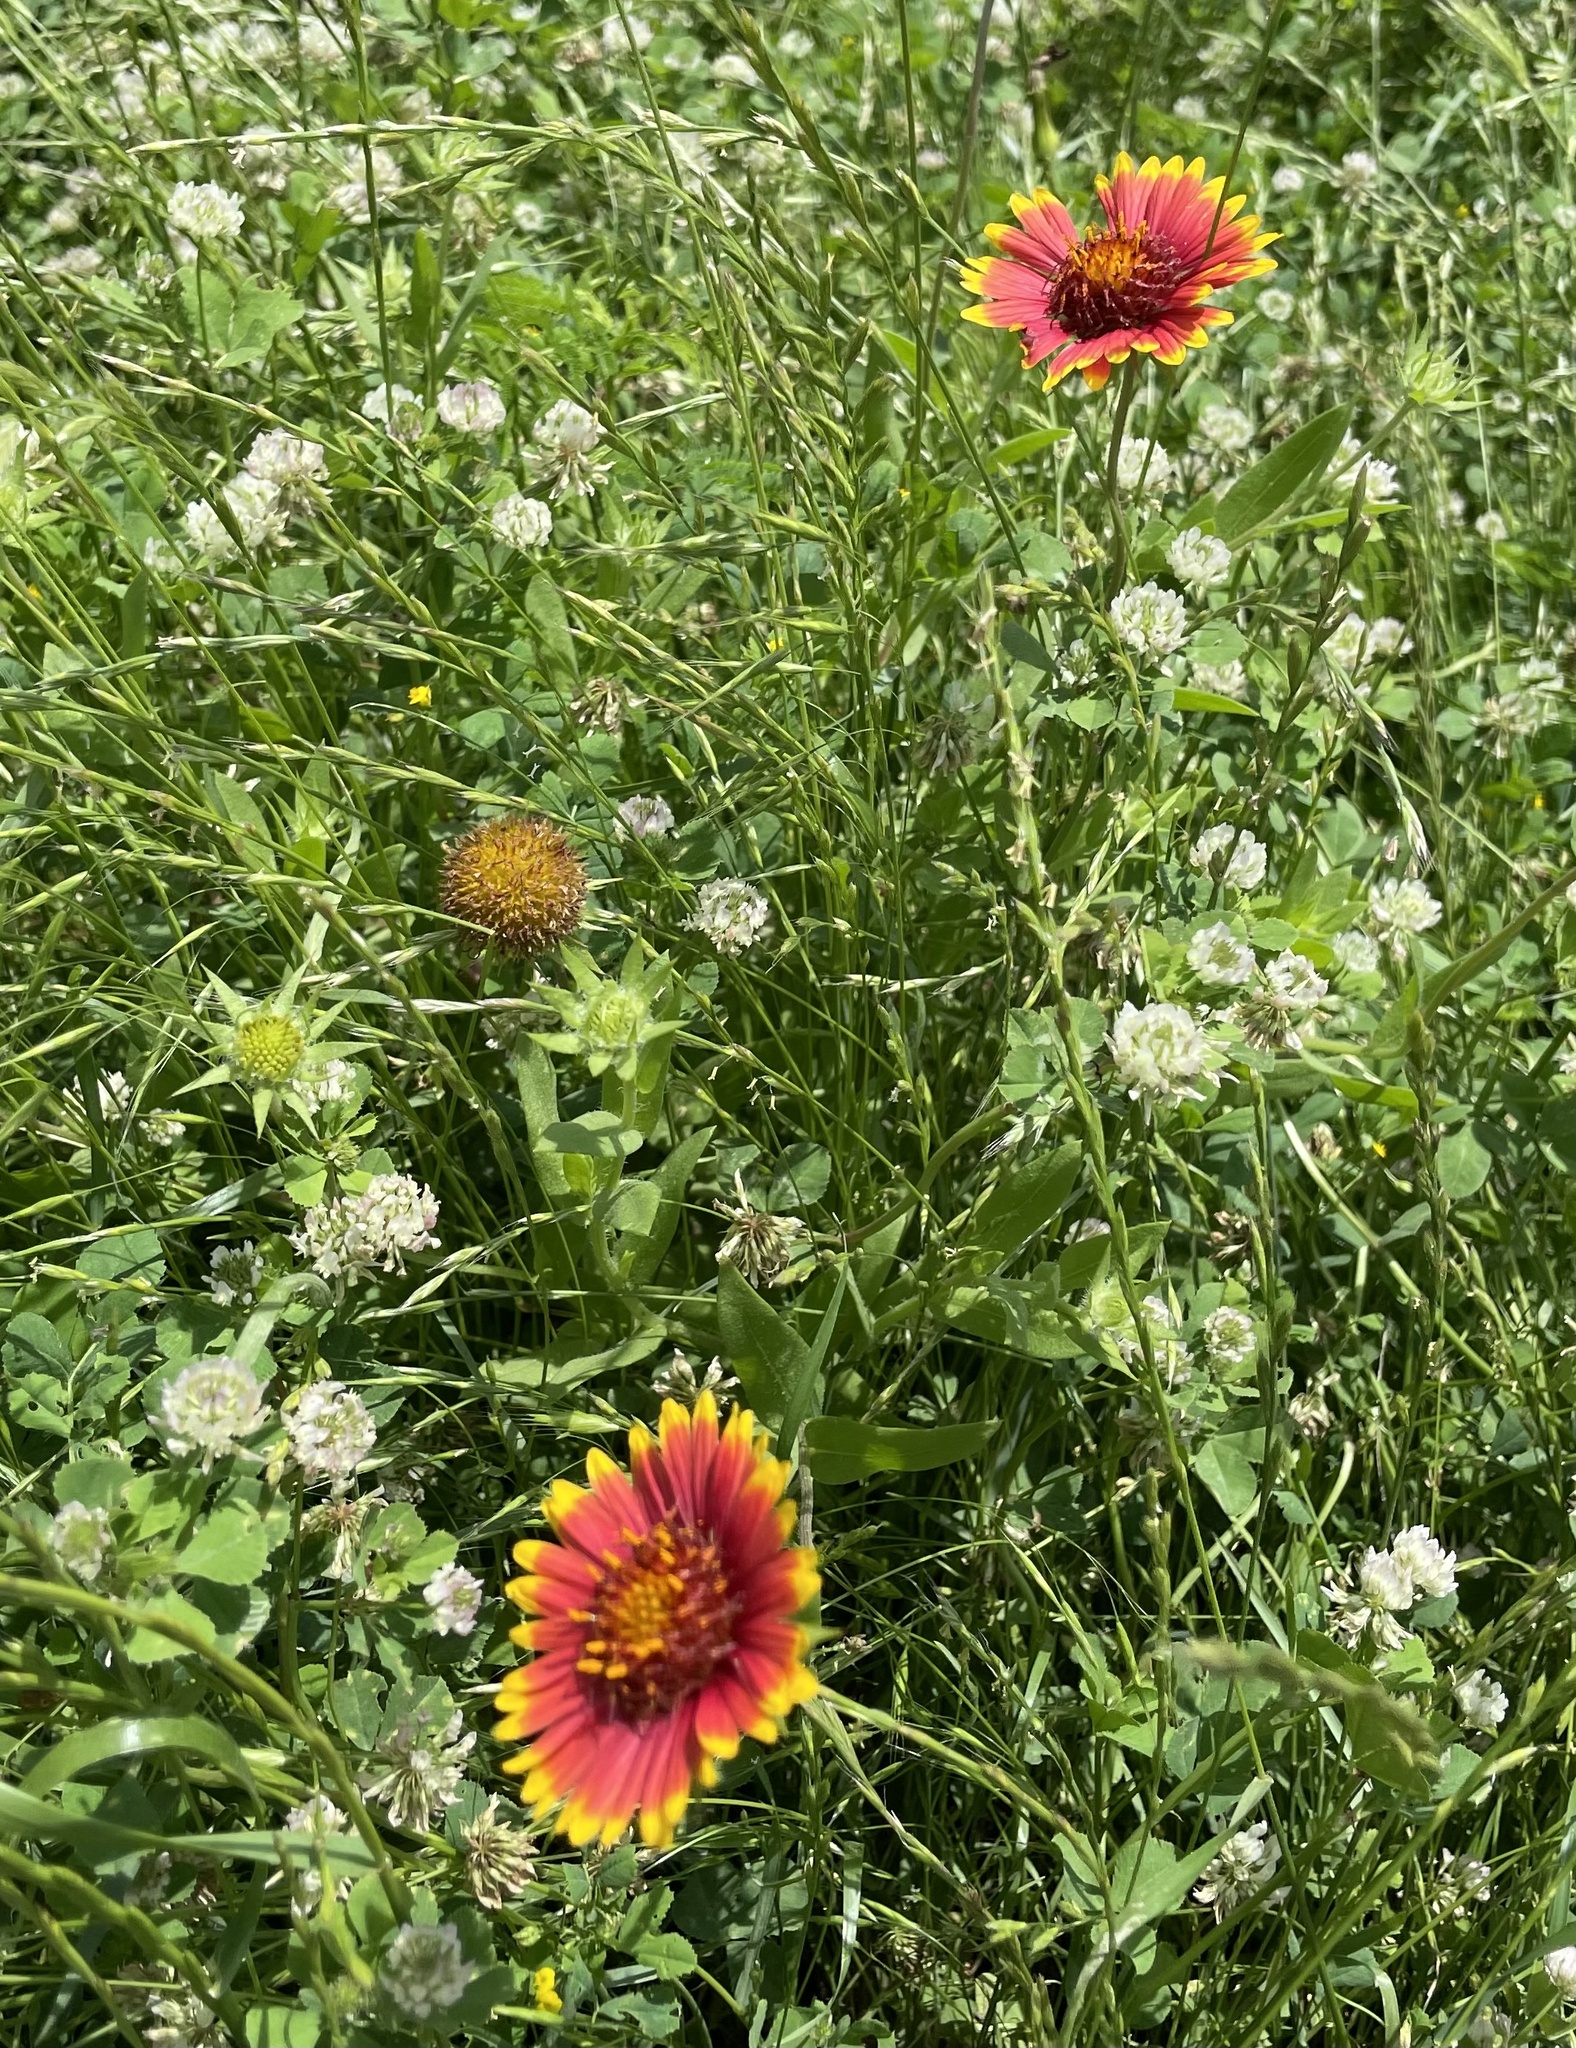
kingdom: Plantae
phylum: Tracheophyta
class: Magnoliopsida
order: Asterales
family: Asteraceae
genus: Gaillardia
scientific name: Gaillardia pulchella
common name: Firewheel
